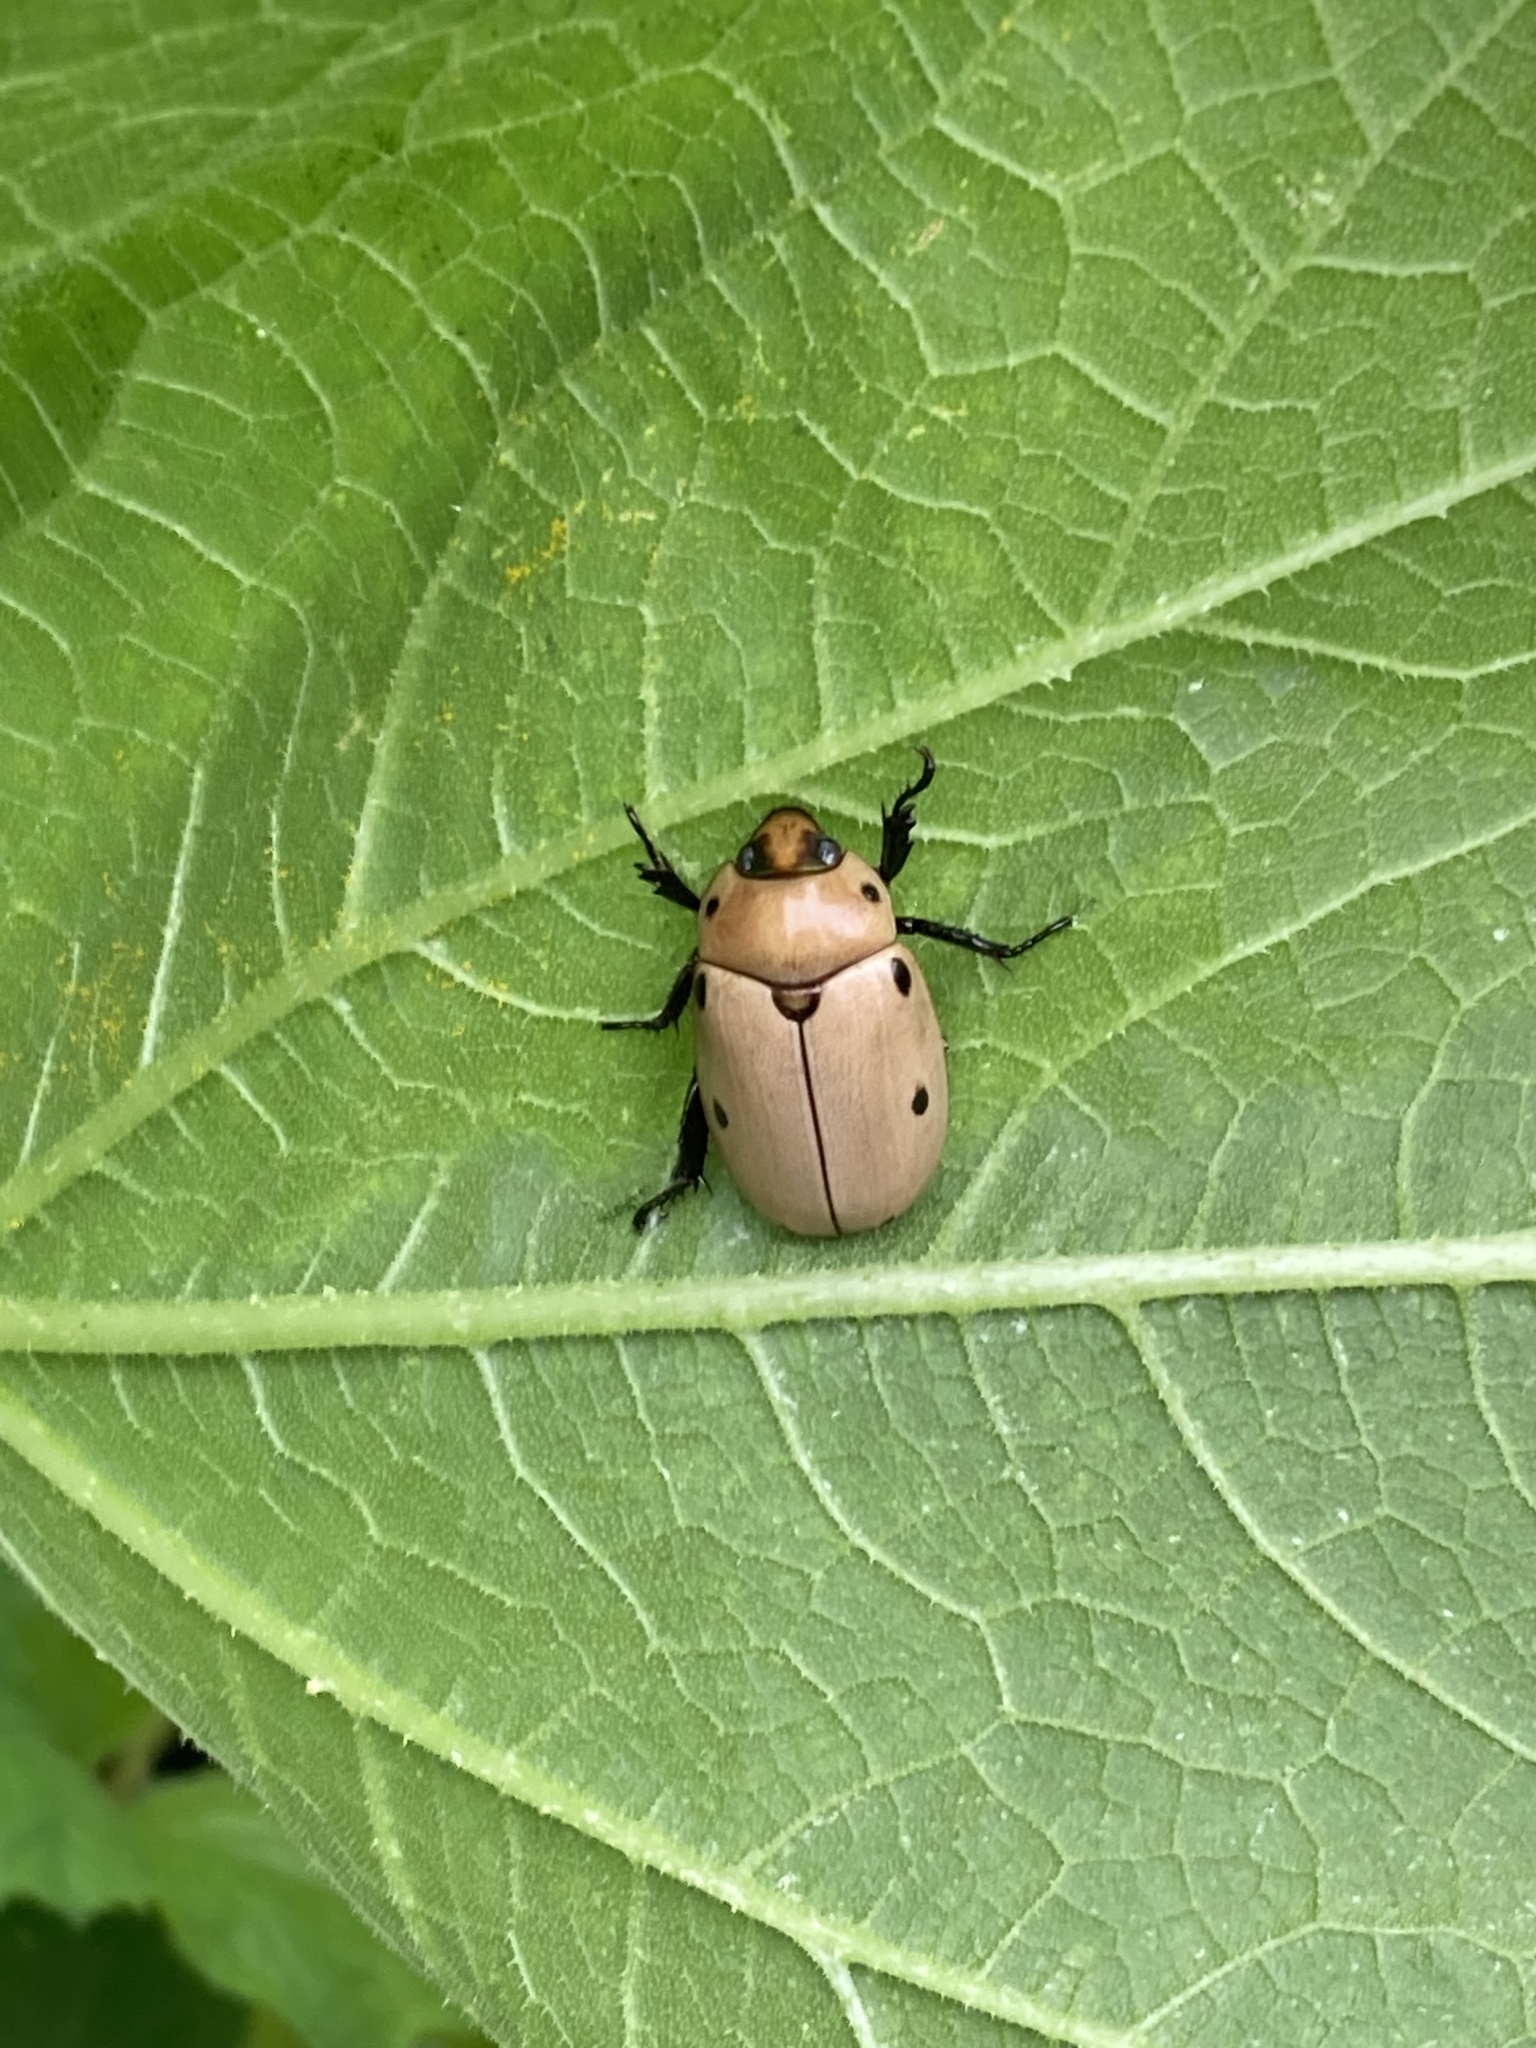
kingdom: Animalia
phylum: Arthropoda
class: Insecta
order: Coleoptera
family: Scarabaeidae
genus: Pelidnota
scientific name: Pelidnota punctata
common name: Grapevine beetle
